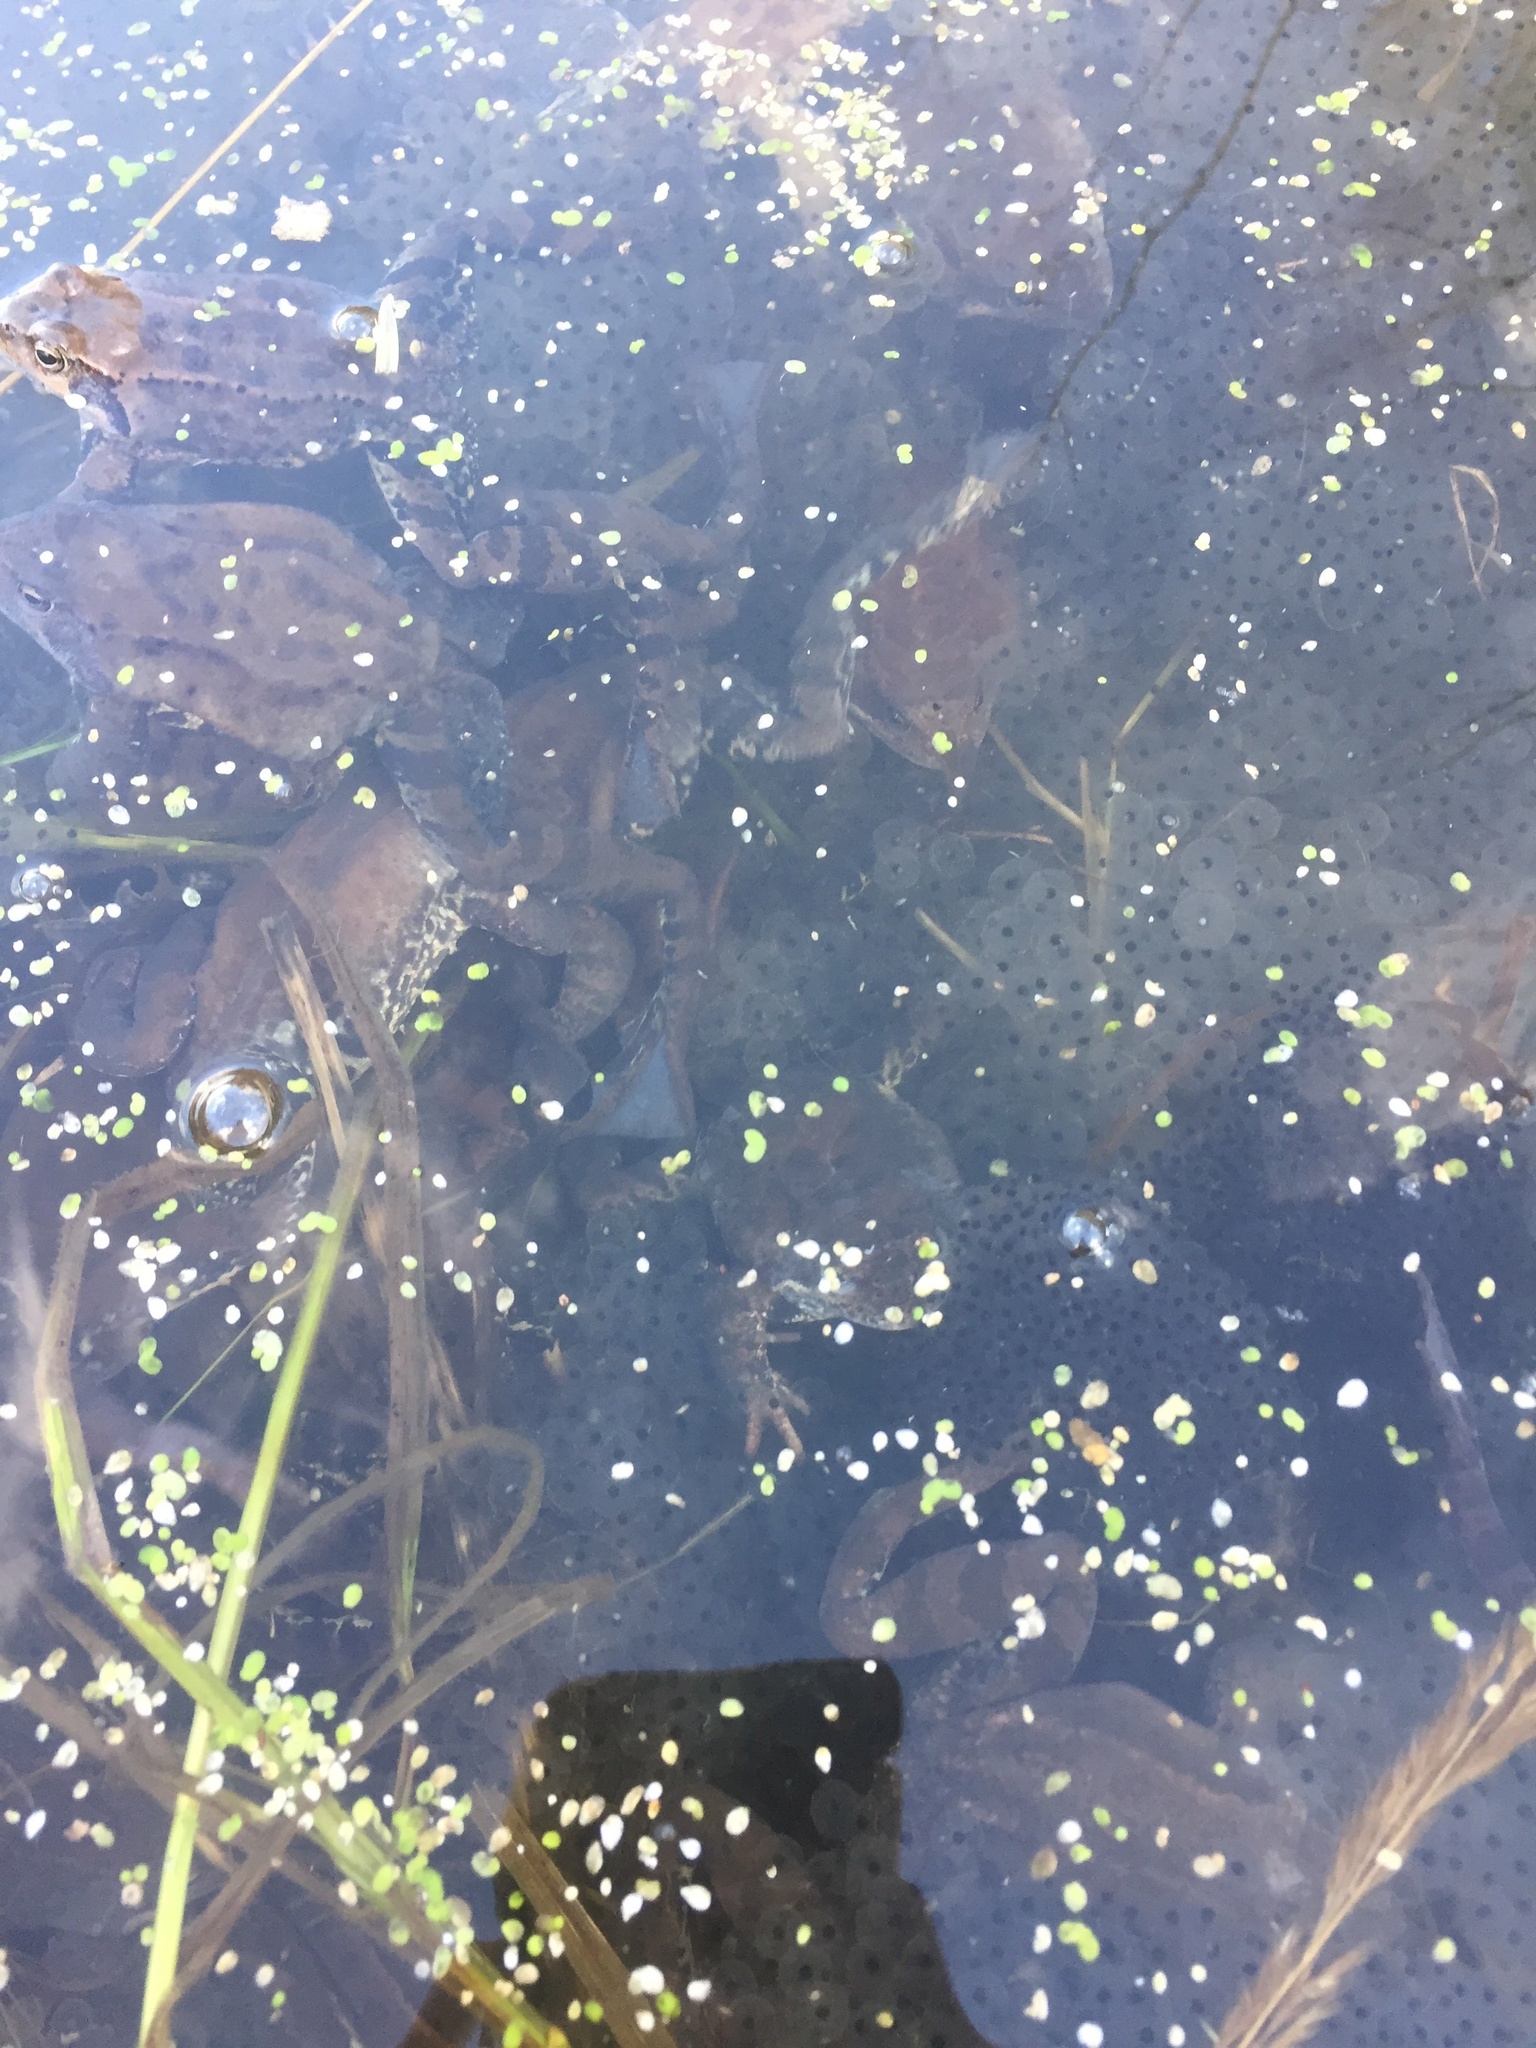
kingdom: Animalia
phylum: Chordata
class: Amphibia
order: Anura
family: Ranidae
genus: Rana
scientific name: Rana temporaria
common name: Common frog
